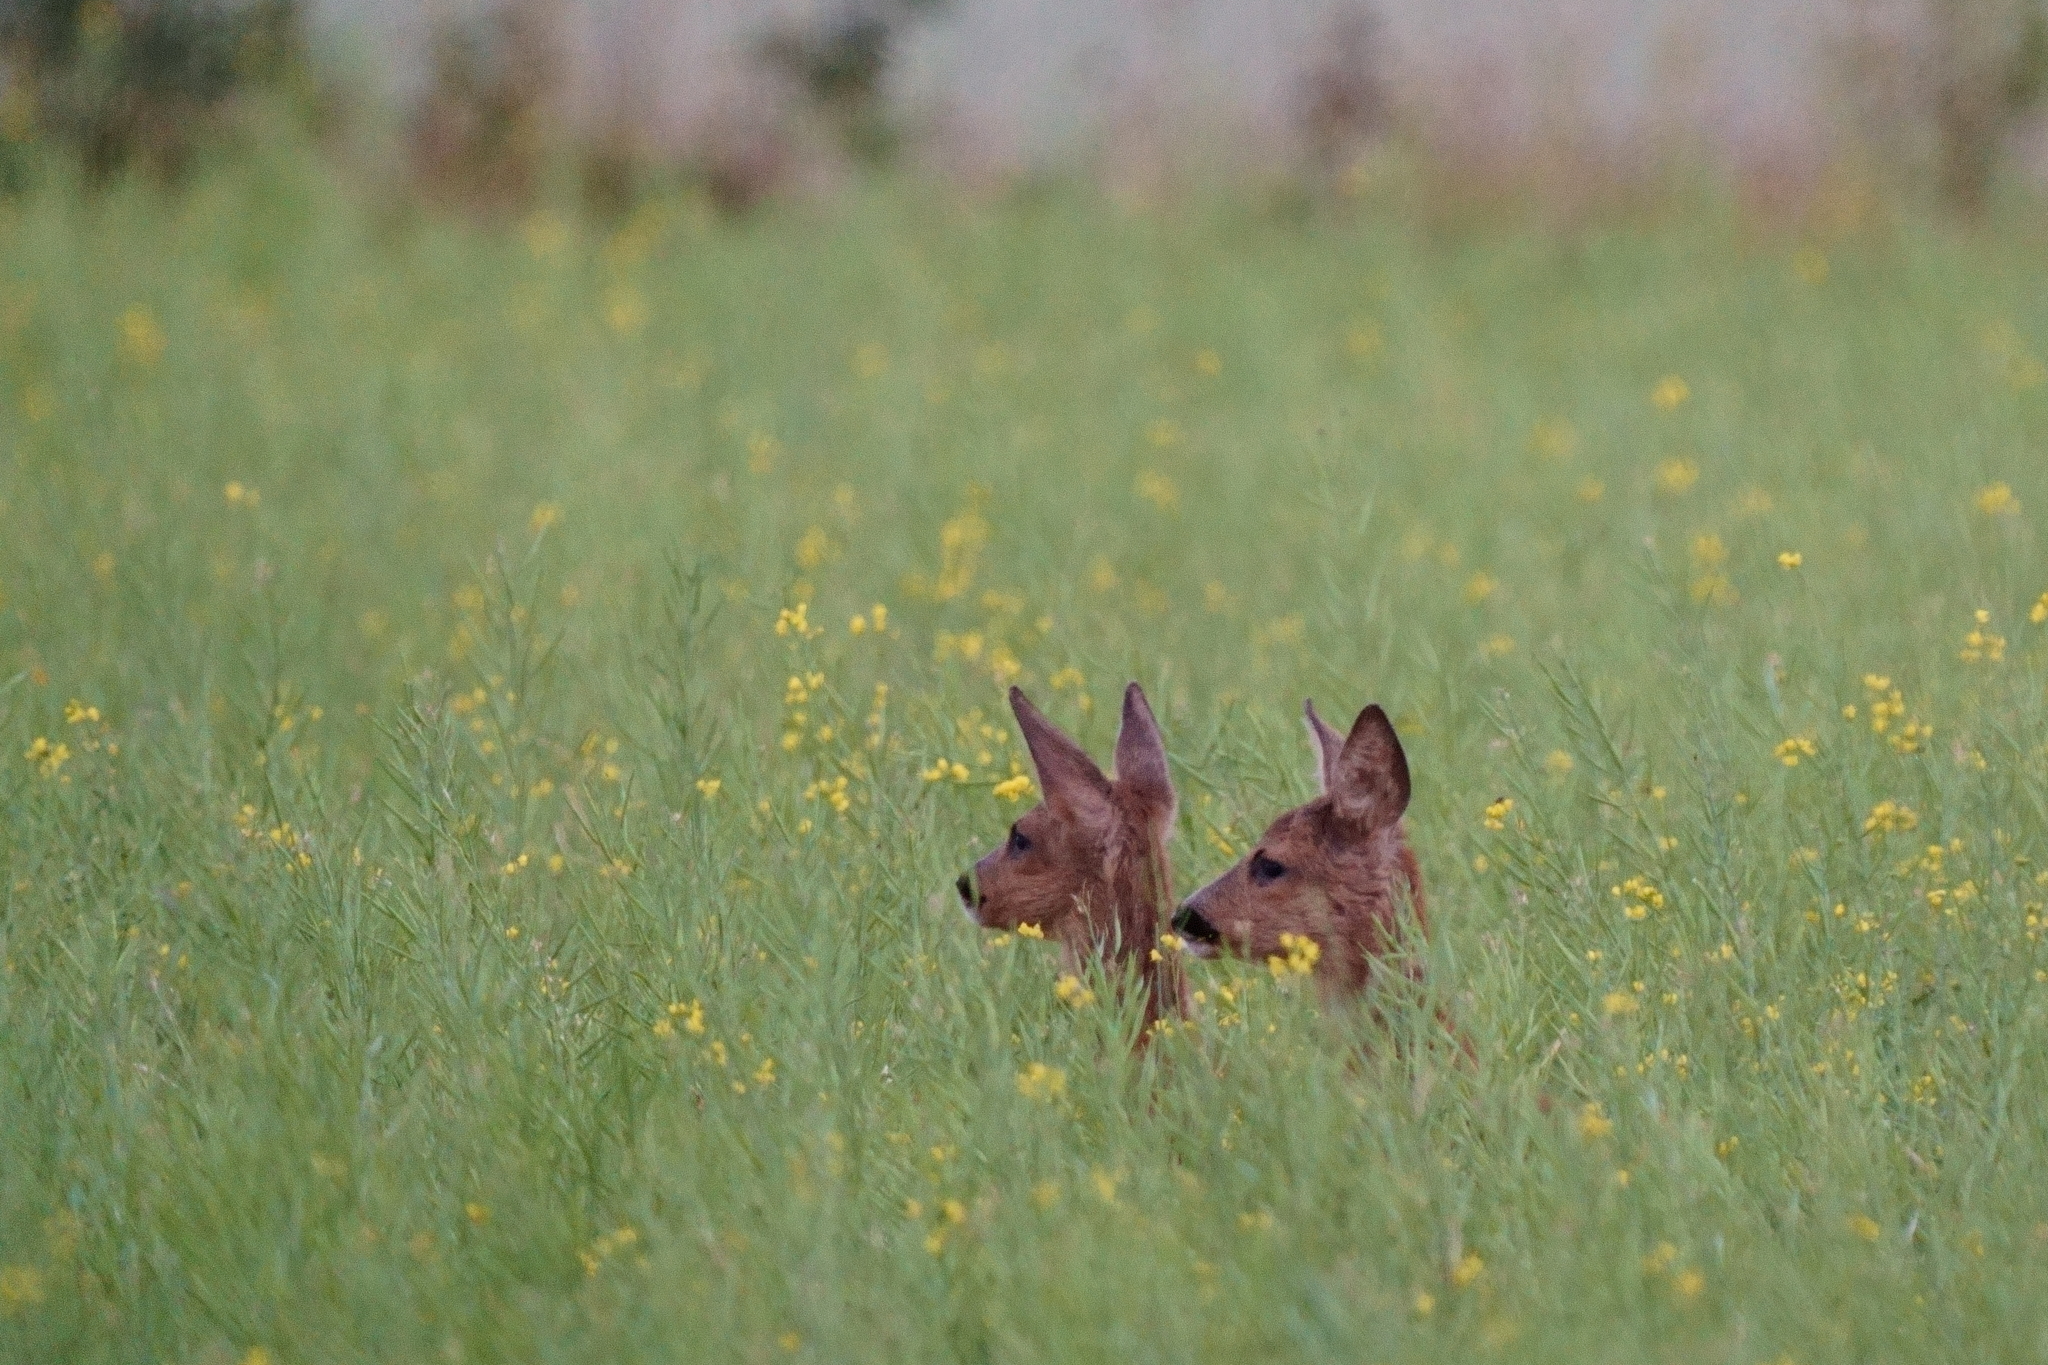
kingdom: Animalia
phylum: Chordata
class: Mammalia
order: Artiodactyla
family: Cervidae
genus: Capreolus
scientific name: Capreolus capreolus
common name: Western roe deer
